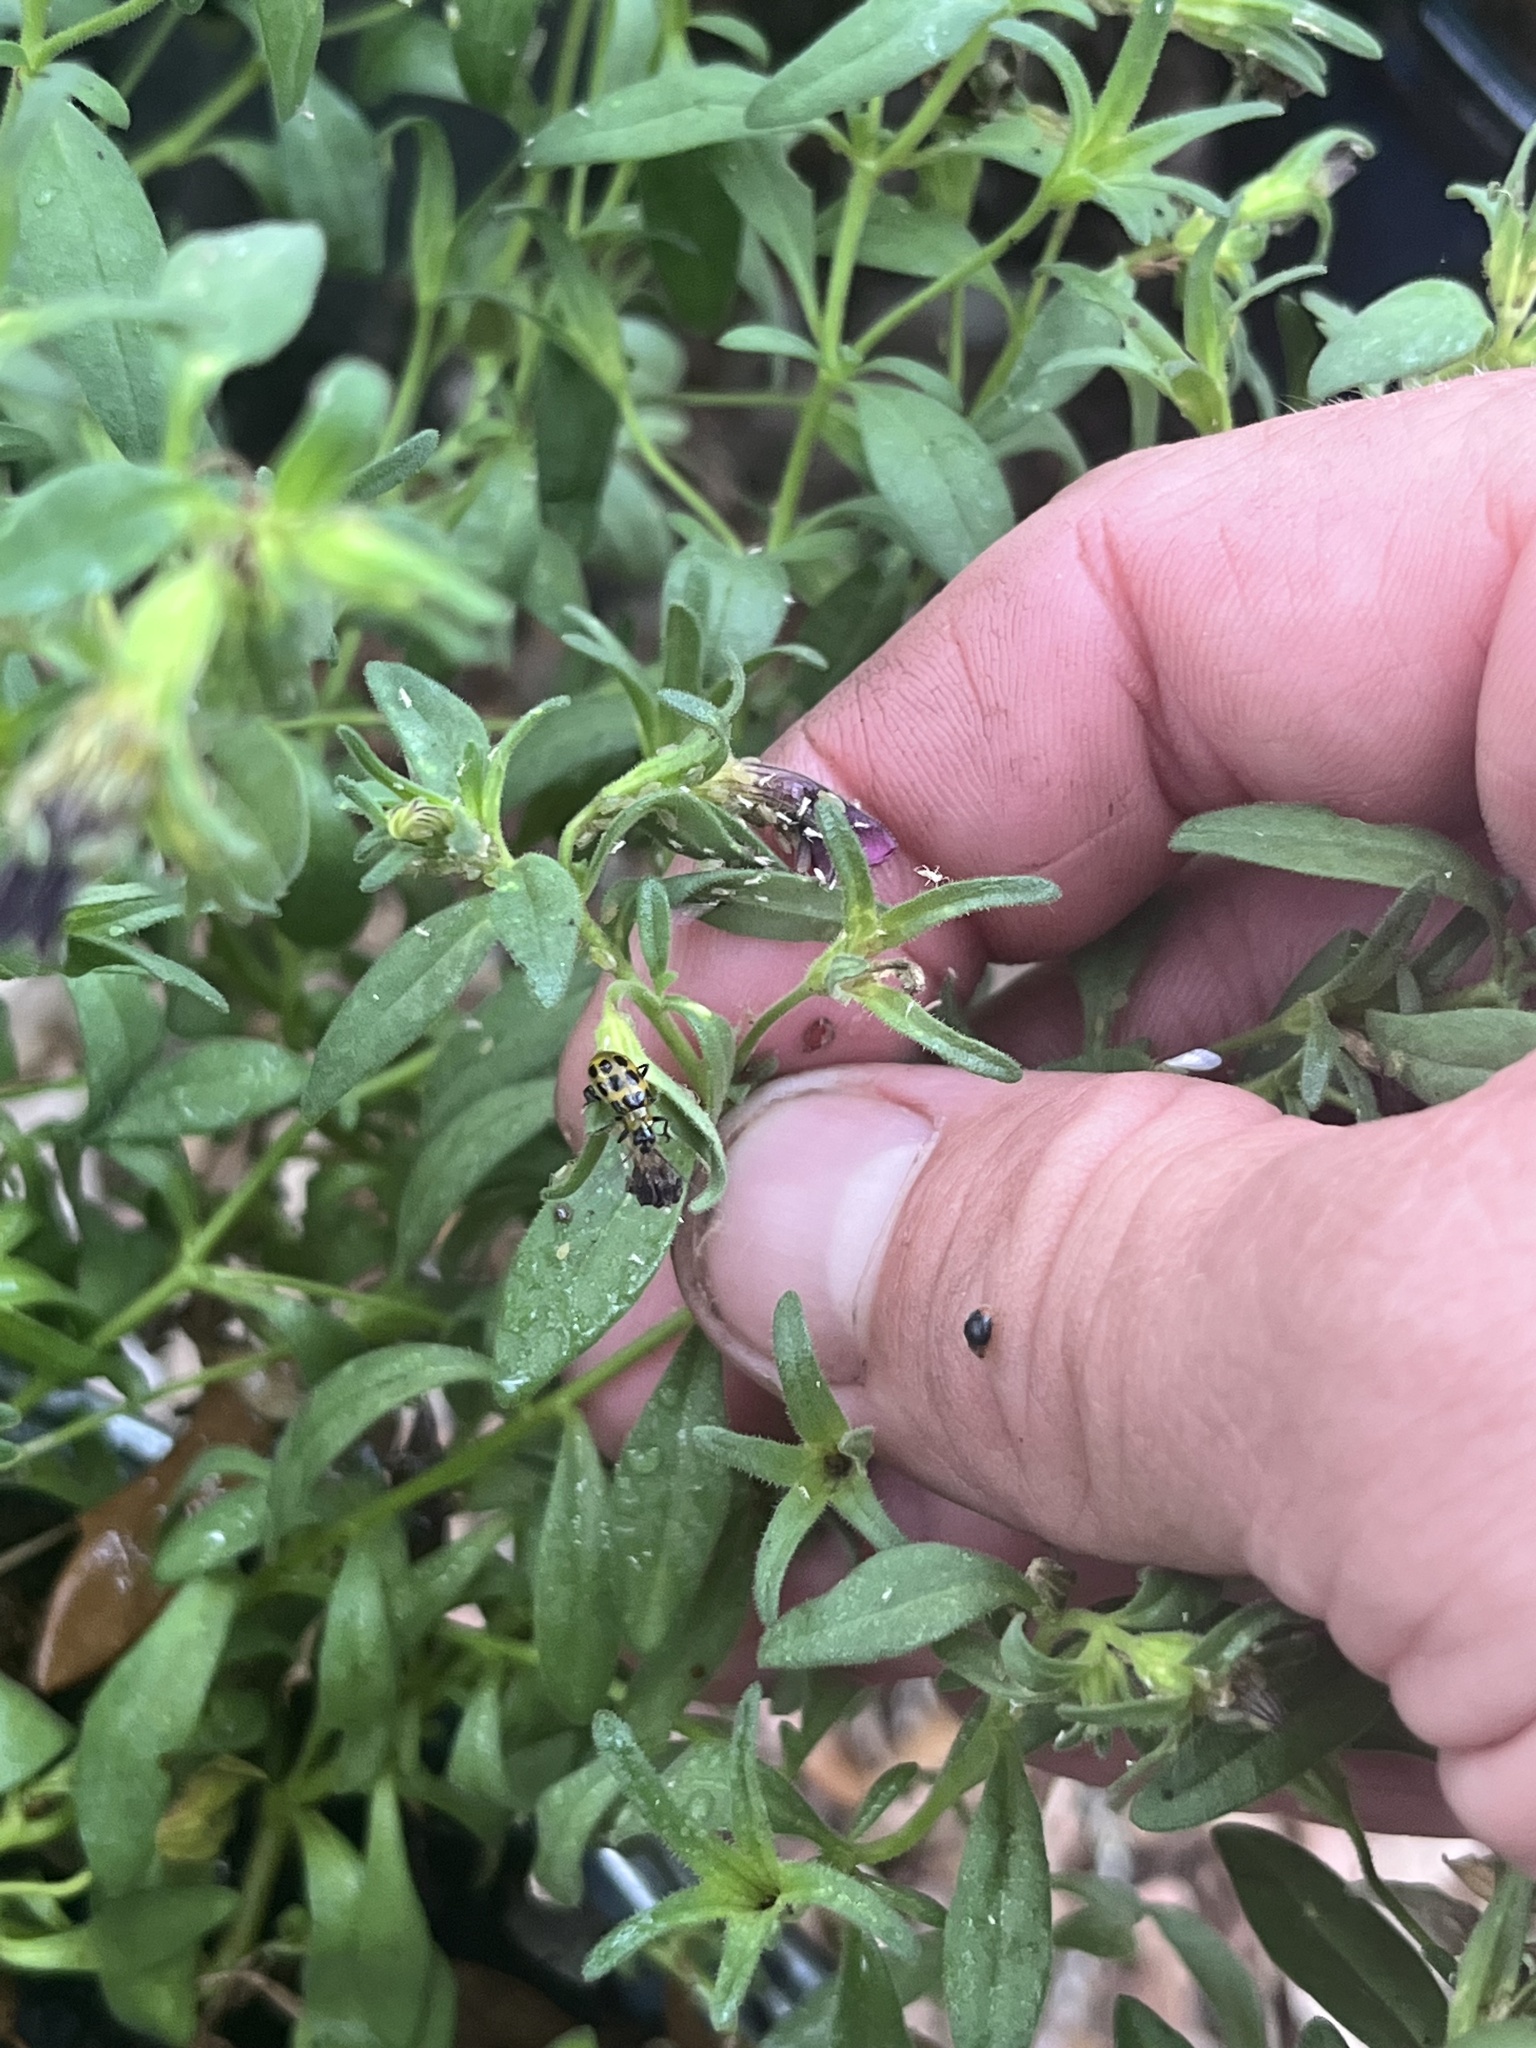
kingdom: Animalia
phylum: Arthropoda
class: Insecta
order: Coleoptera
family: Chrysomelidae
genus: Diabrotica
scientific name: Diabrotica undecimpunctata
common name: Spotted cucumber beetle
